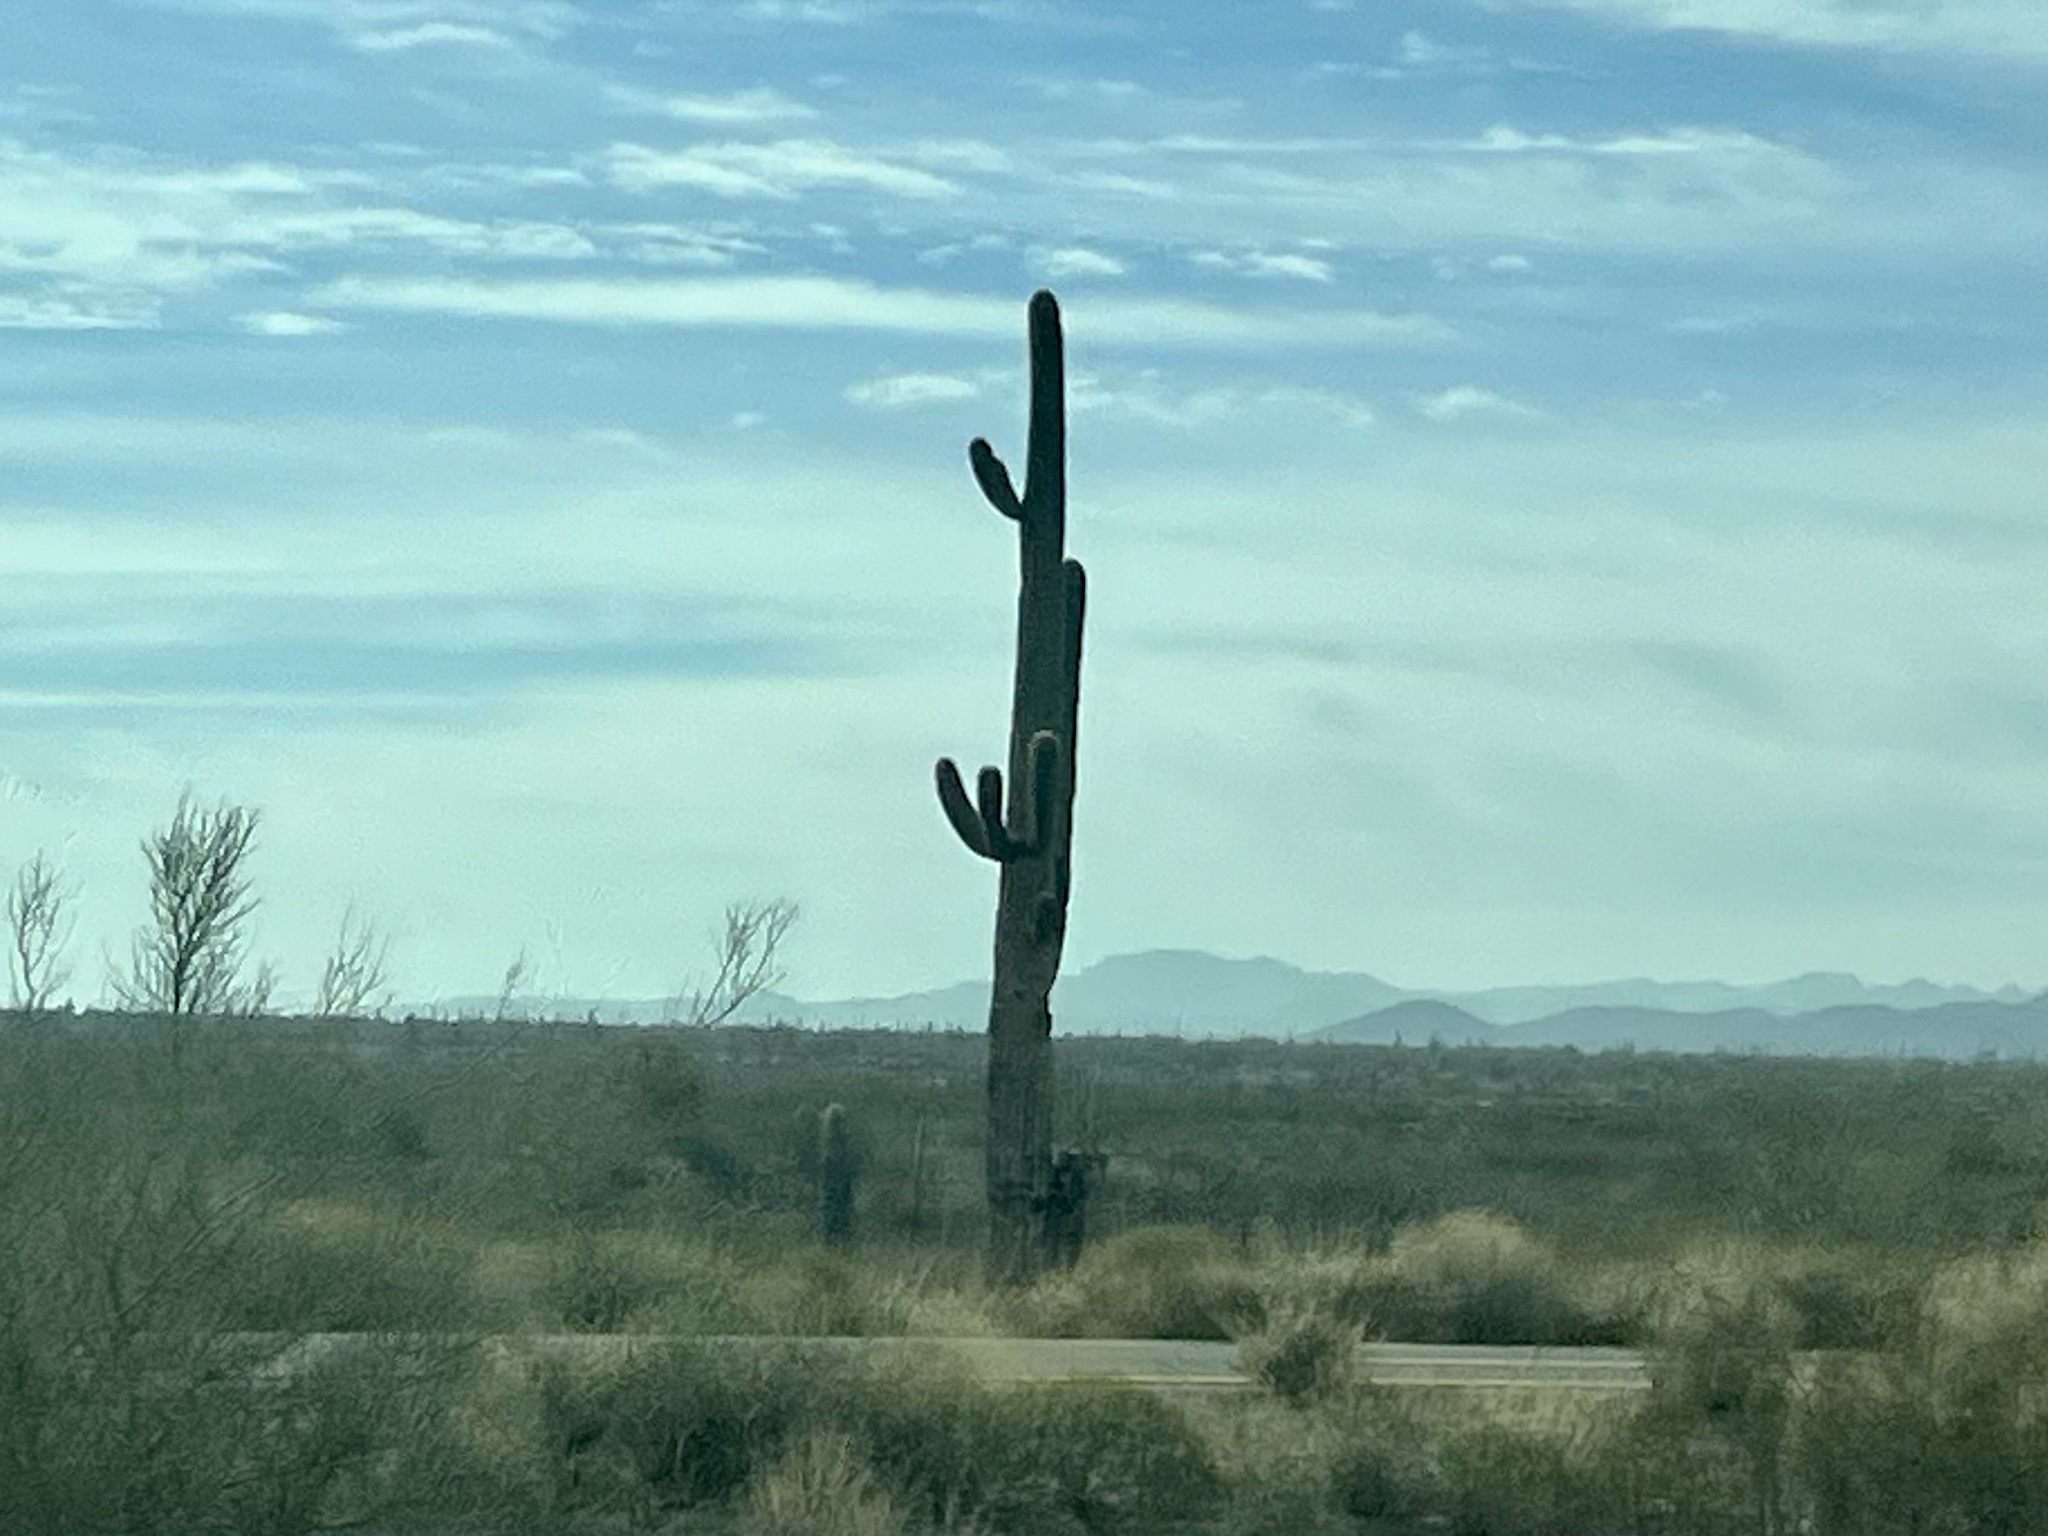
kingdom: Plantae
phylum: Tracheophyta
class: Magnoliopsida
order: Caryophyllales
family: Cactaceae
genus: Carnegiea
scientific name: Carnegiea gigantea
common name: Saguaro
